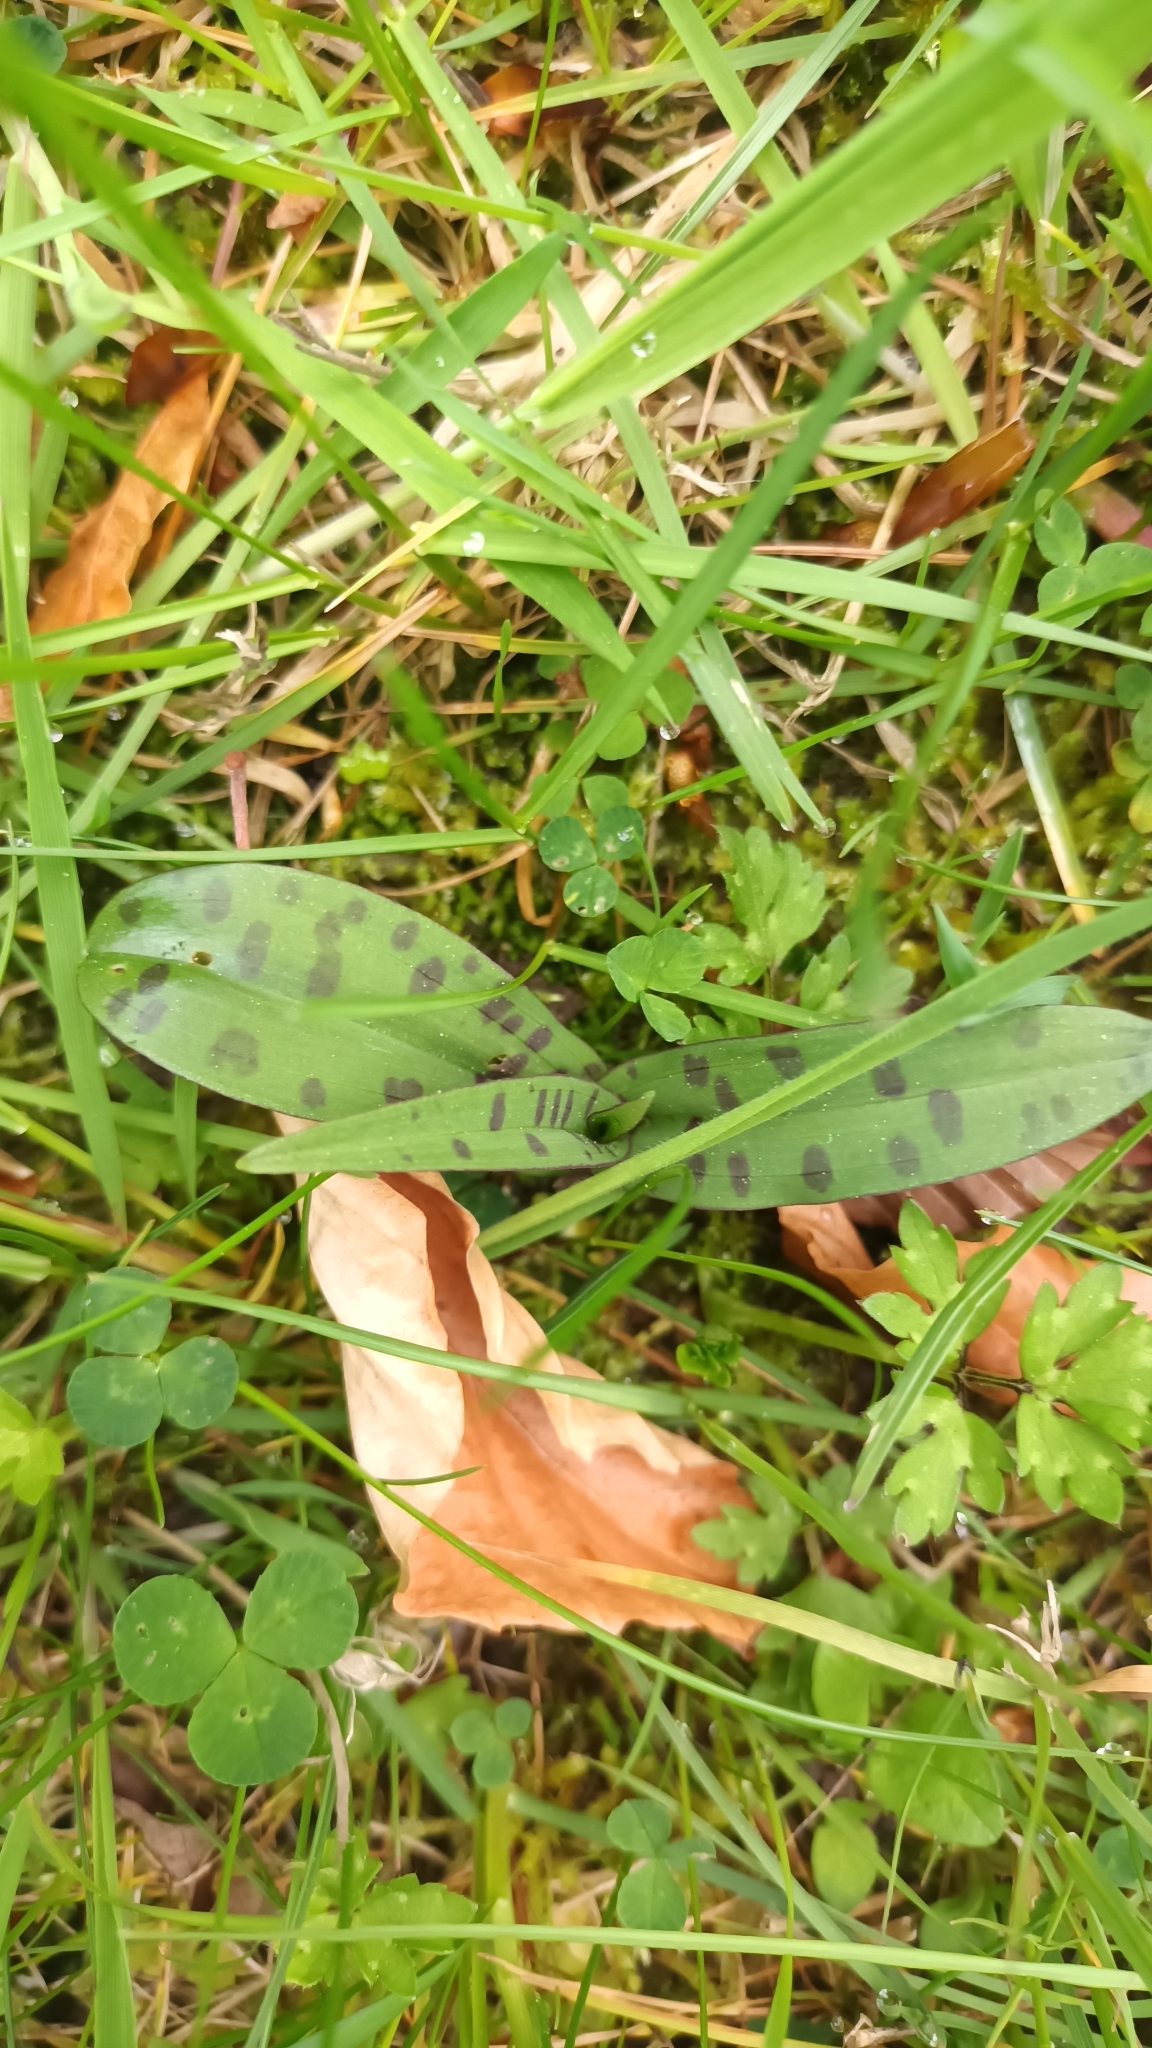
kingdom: Plantae
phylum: Tracheophyta
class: Liliopsida
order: Asparagales
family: Orchidaceae
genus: Dactylorhiza
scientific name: Dactylorhiza maculata
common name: Heath spotted-orchid
